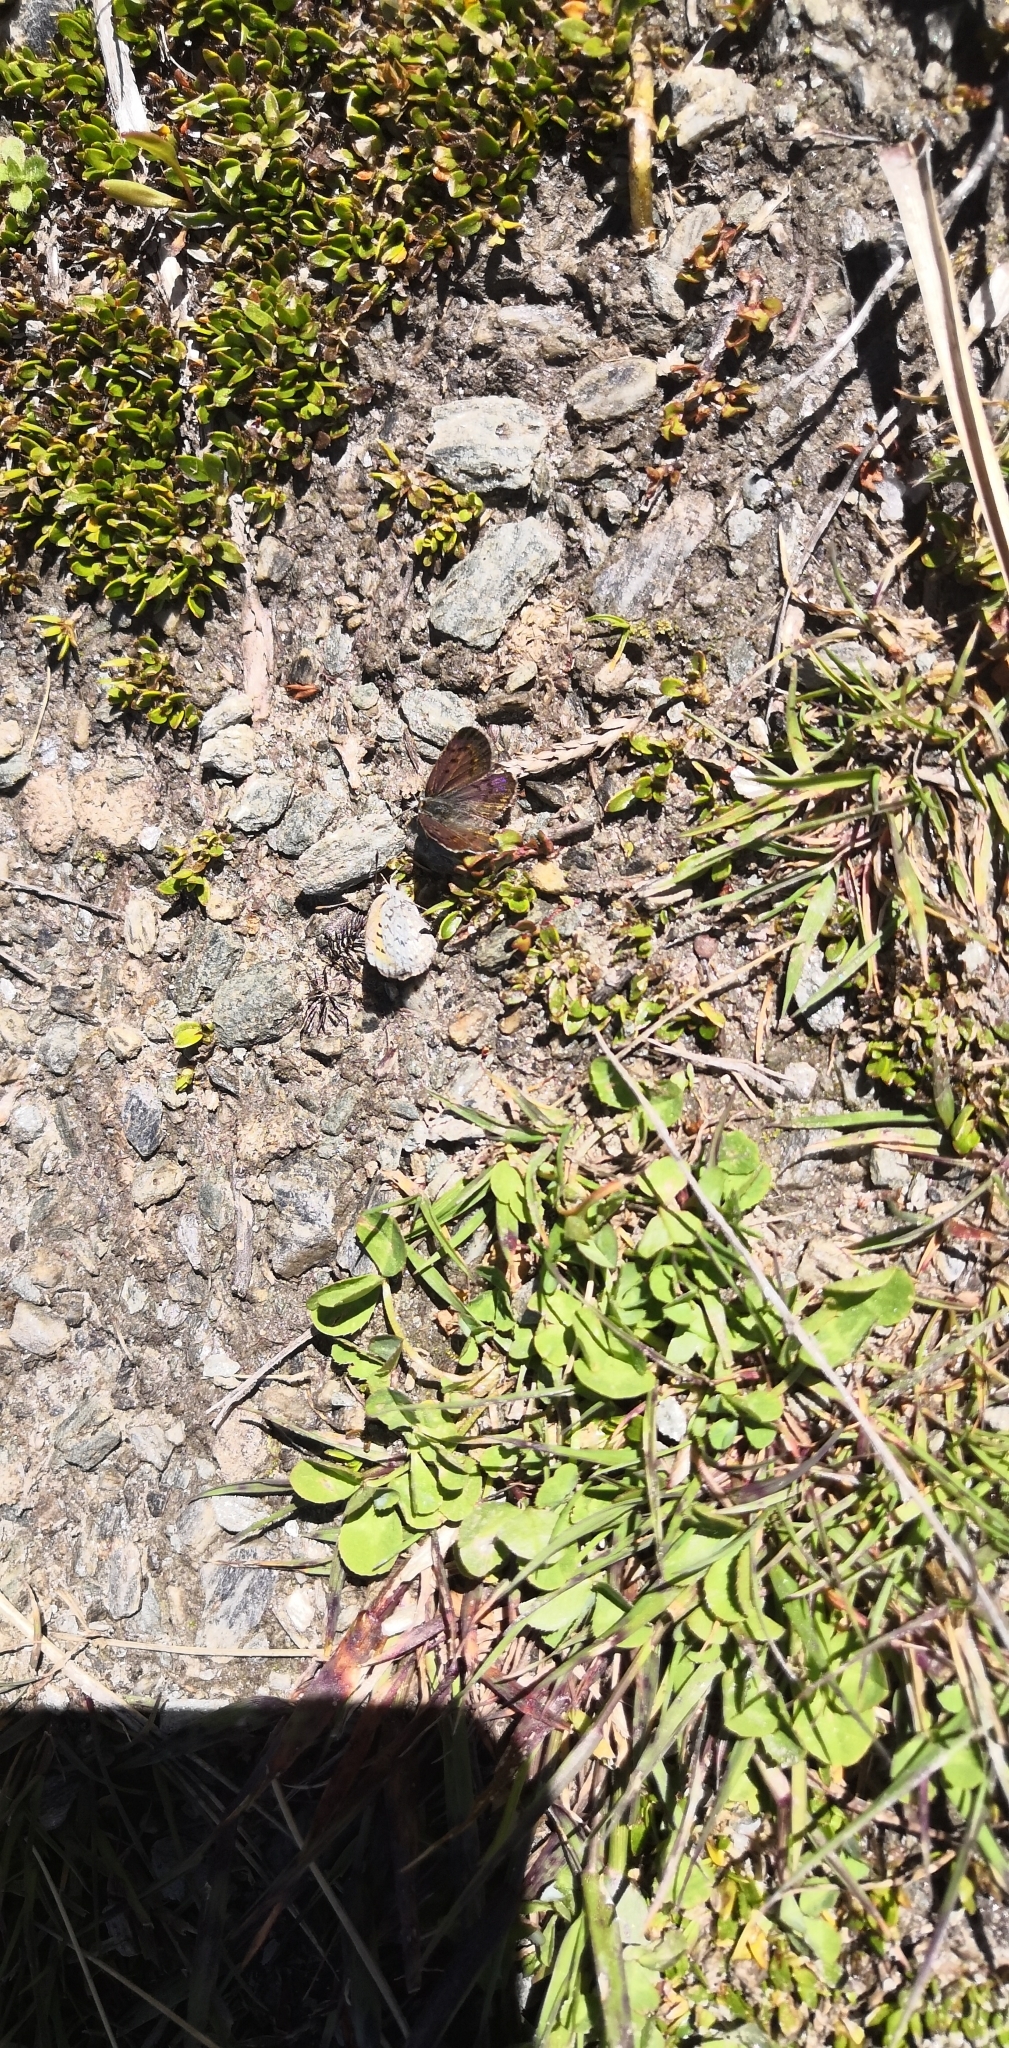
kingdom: Animalia
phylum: Arthropoda
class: Insecta
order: Lepidoptera
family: Lycaenidae
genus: Lycaena
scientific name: Lycaena boldenarum
